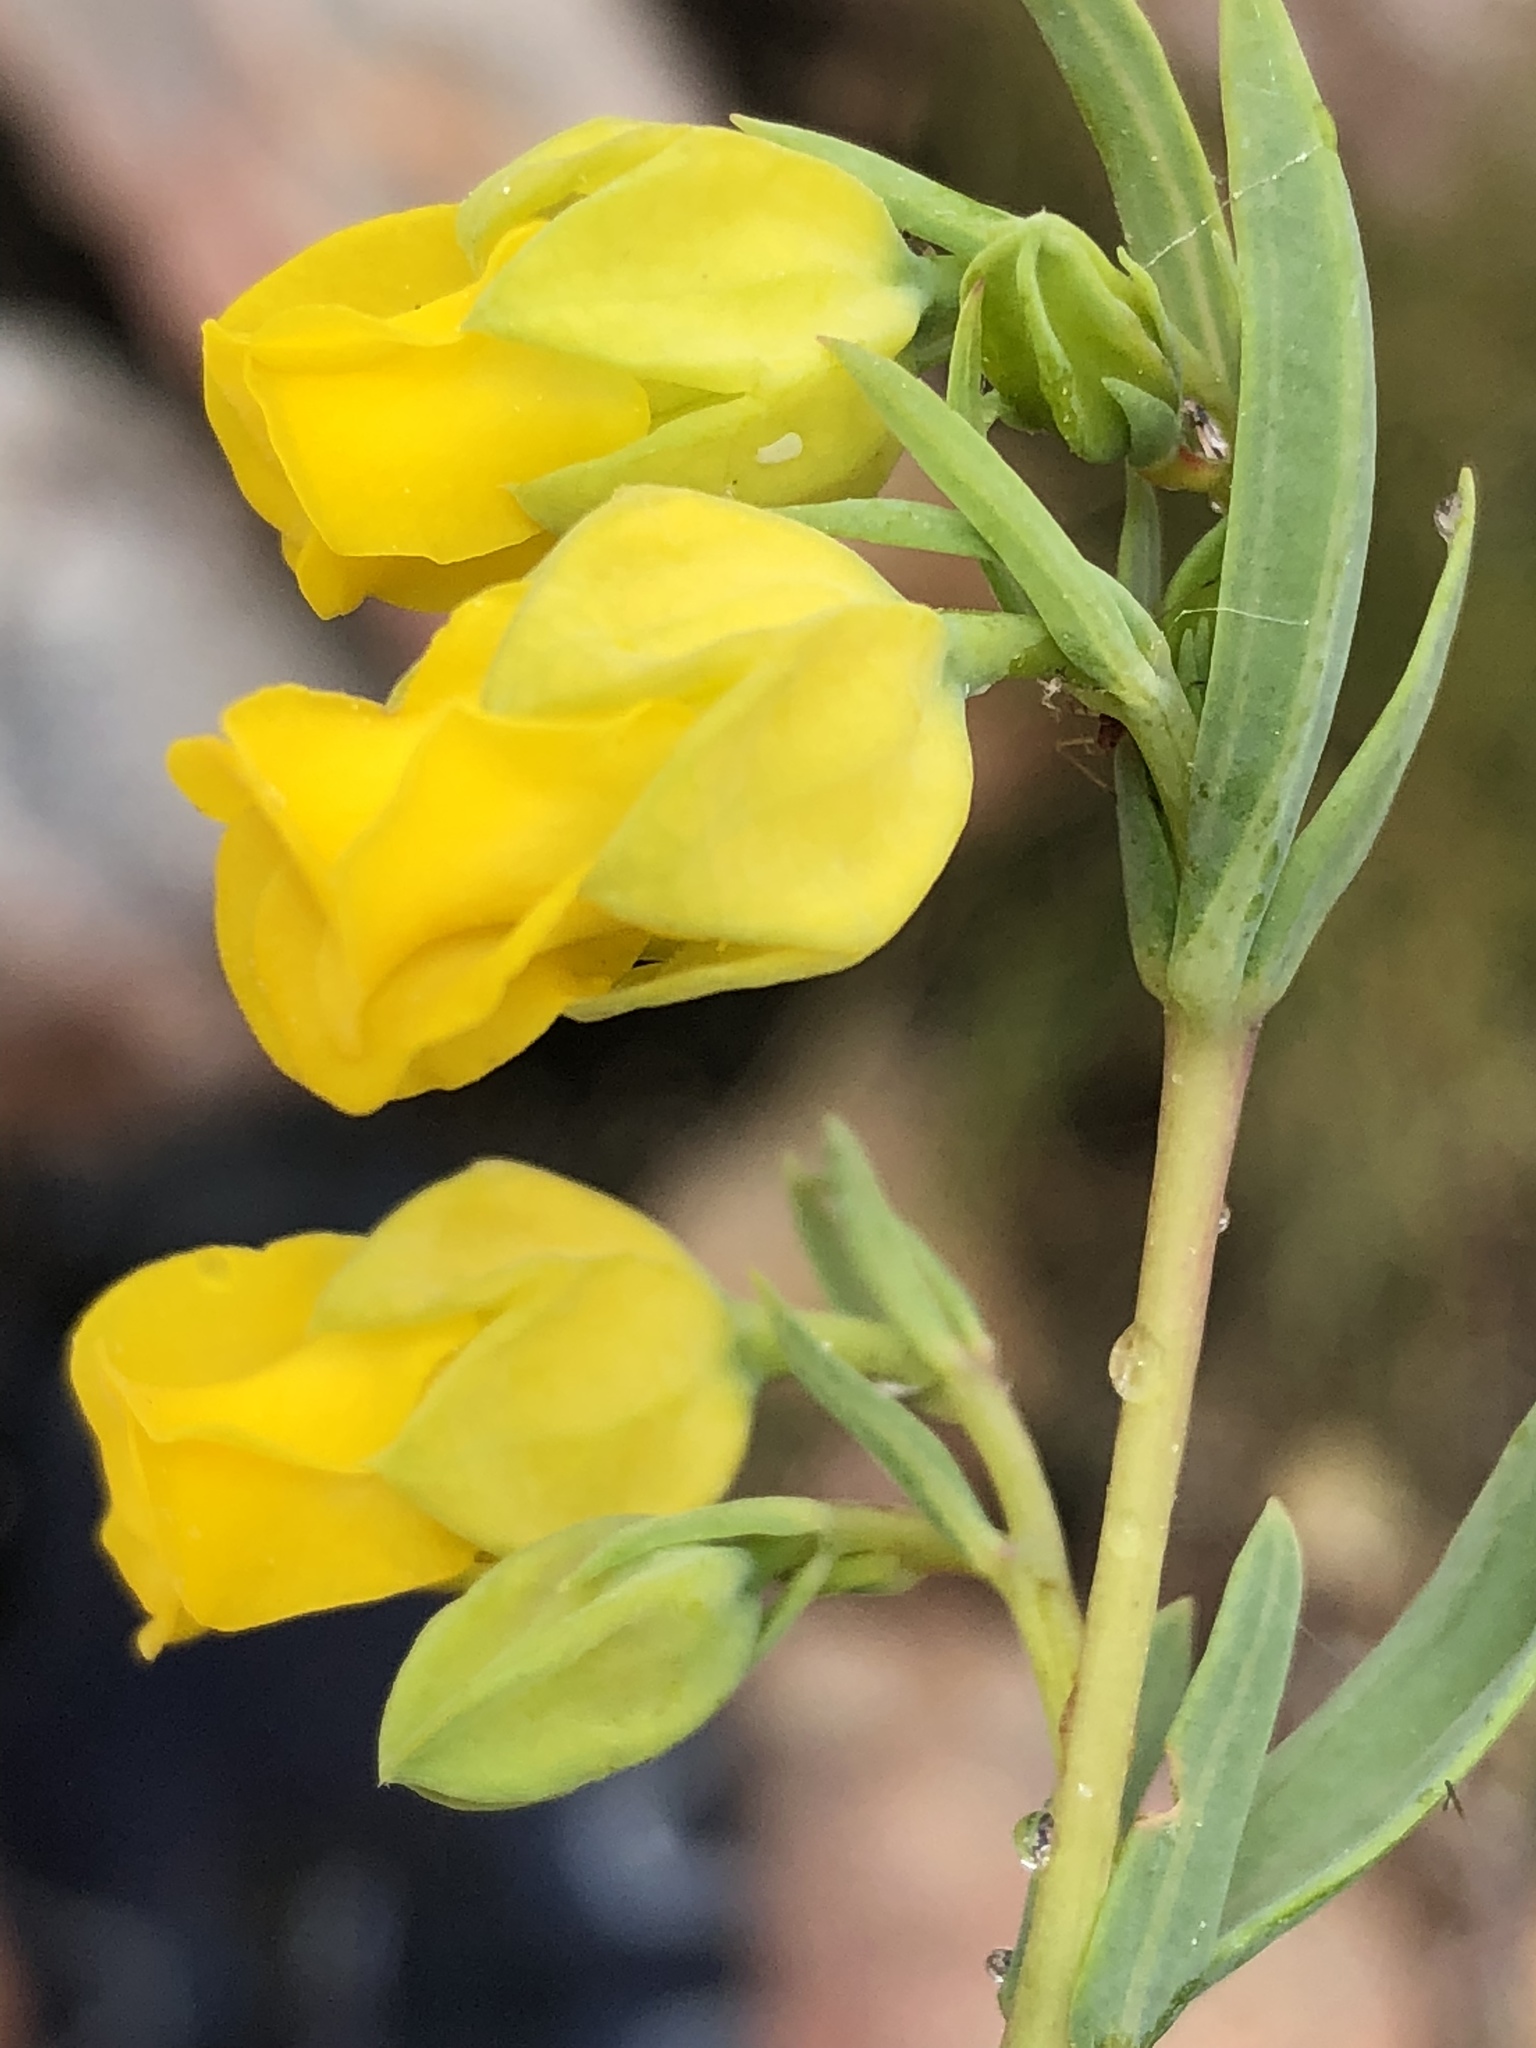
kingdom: Plantae
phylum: Tracheophyta
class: Magnoliopsida
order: Malvales
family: Malvaceae
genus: Hermannia
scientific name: Hermannia
